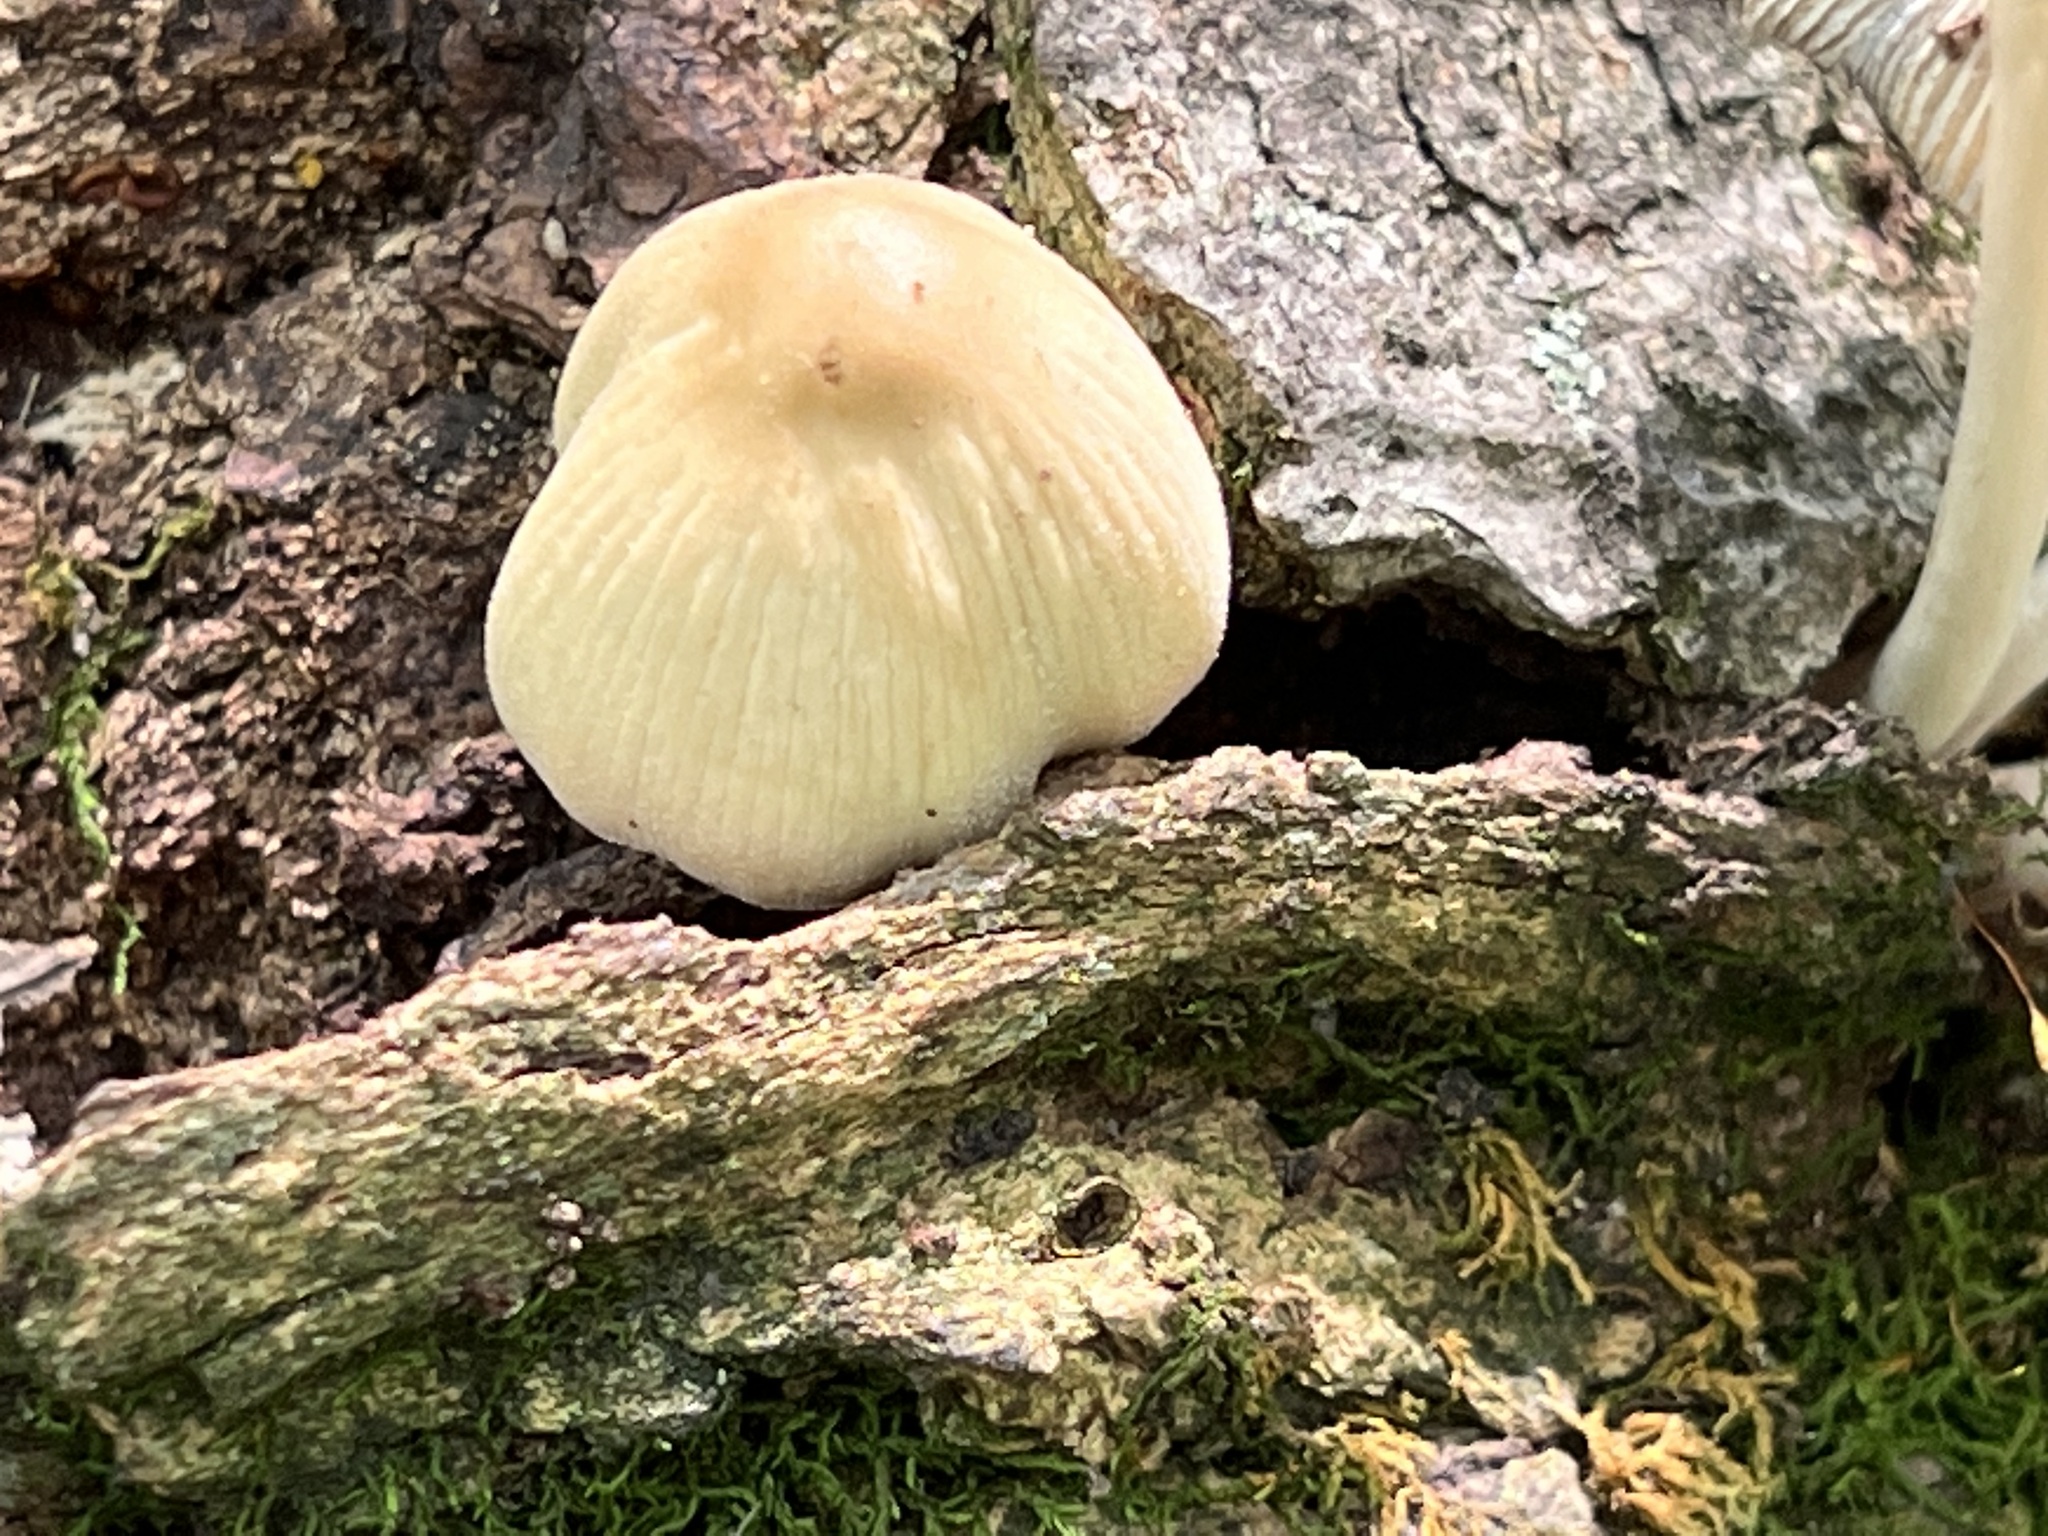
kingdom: Fungi
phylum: Basidiomycota
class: Agaricomycetes
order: Agaricales
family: Psathyrellaceae
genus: Coprinellus
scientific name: Coprinellus micaceus
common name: Glistening ink-cap
